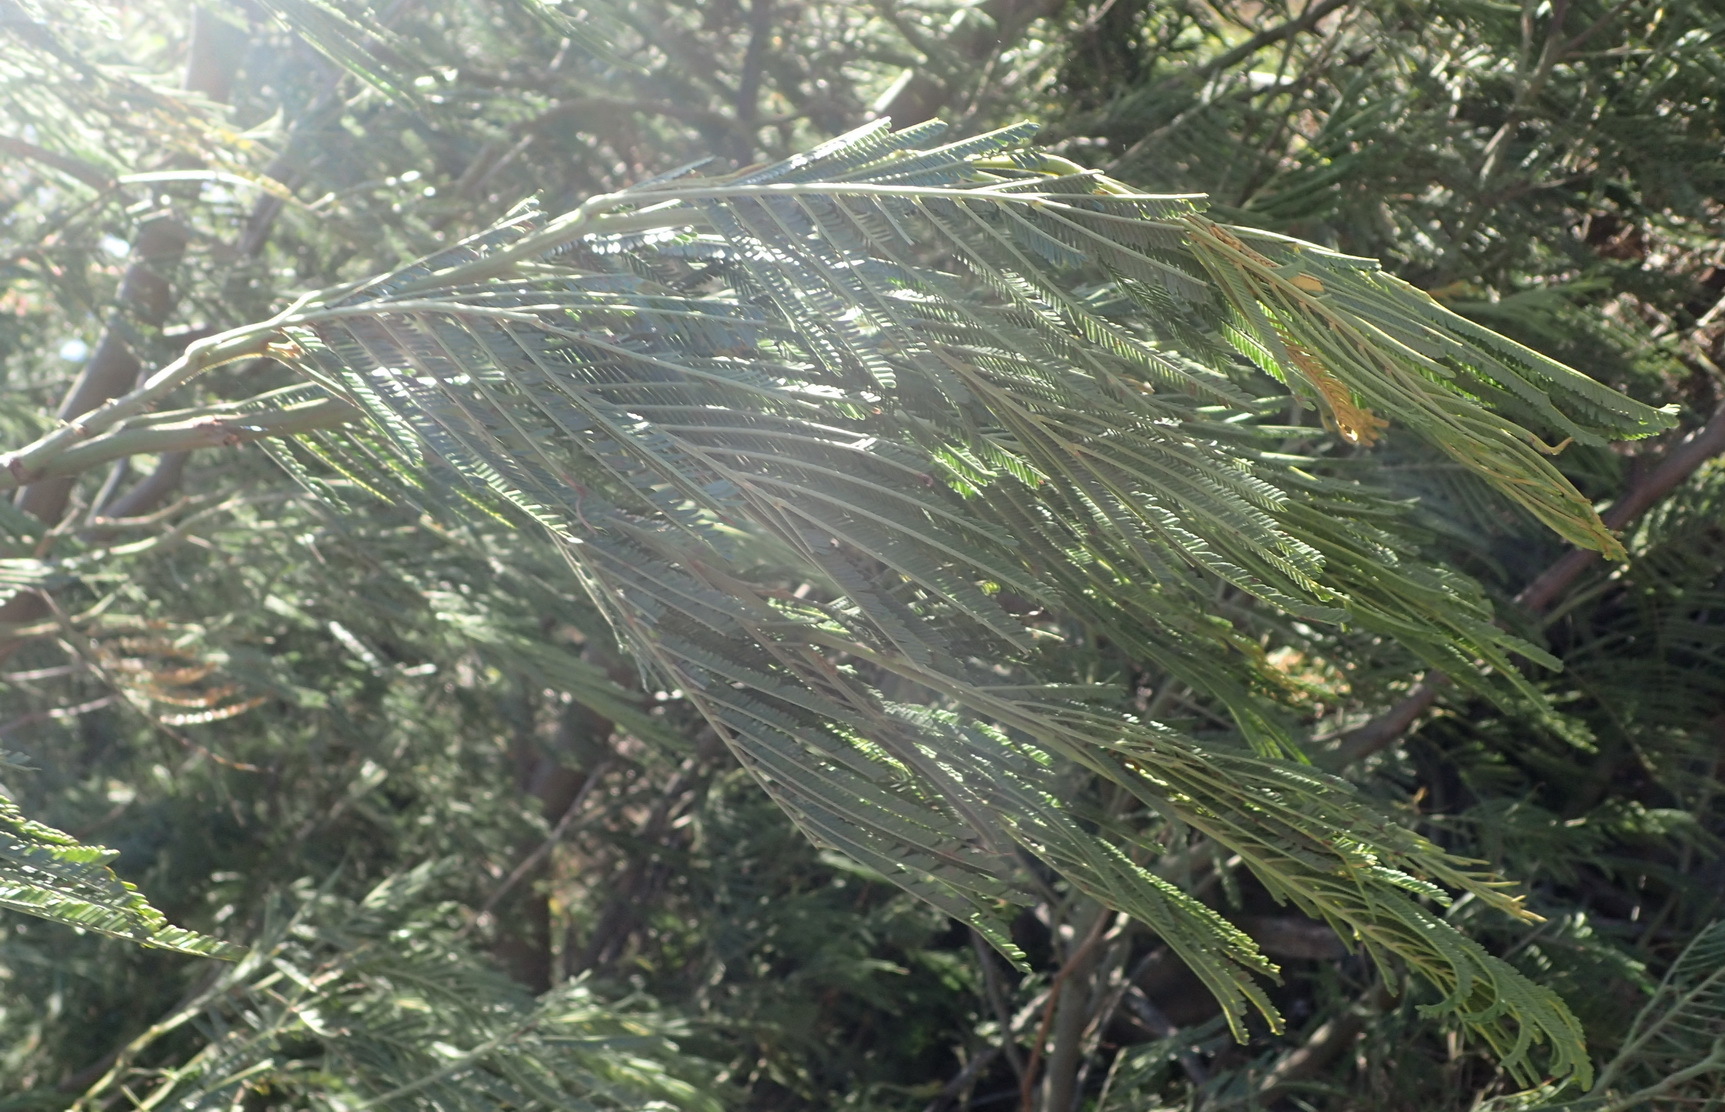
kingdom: Plantae
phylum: Tracheophyta
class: Magnoliopsida
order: Fabales
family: Fabaceae
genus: Acacia
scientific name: Acacia mearnsii
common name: Black wattle
